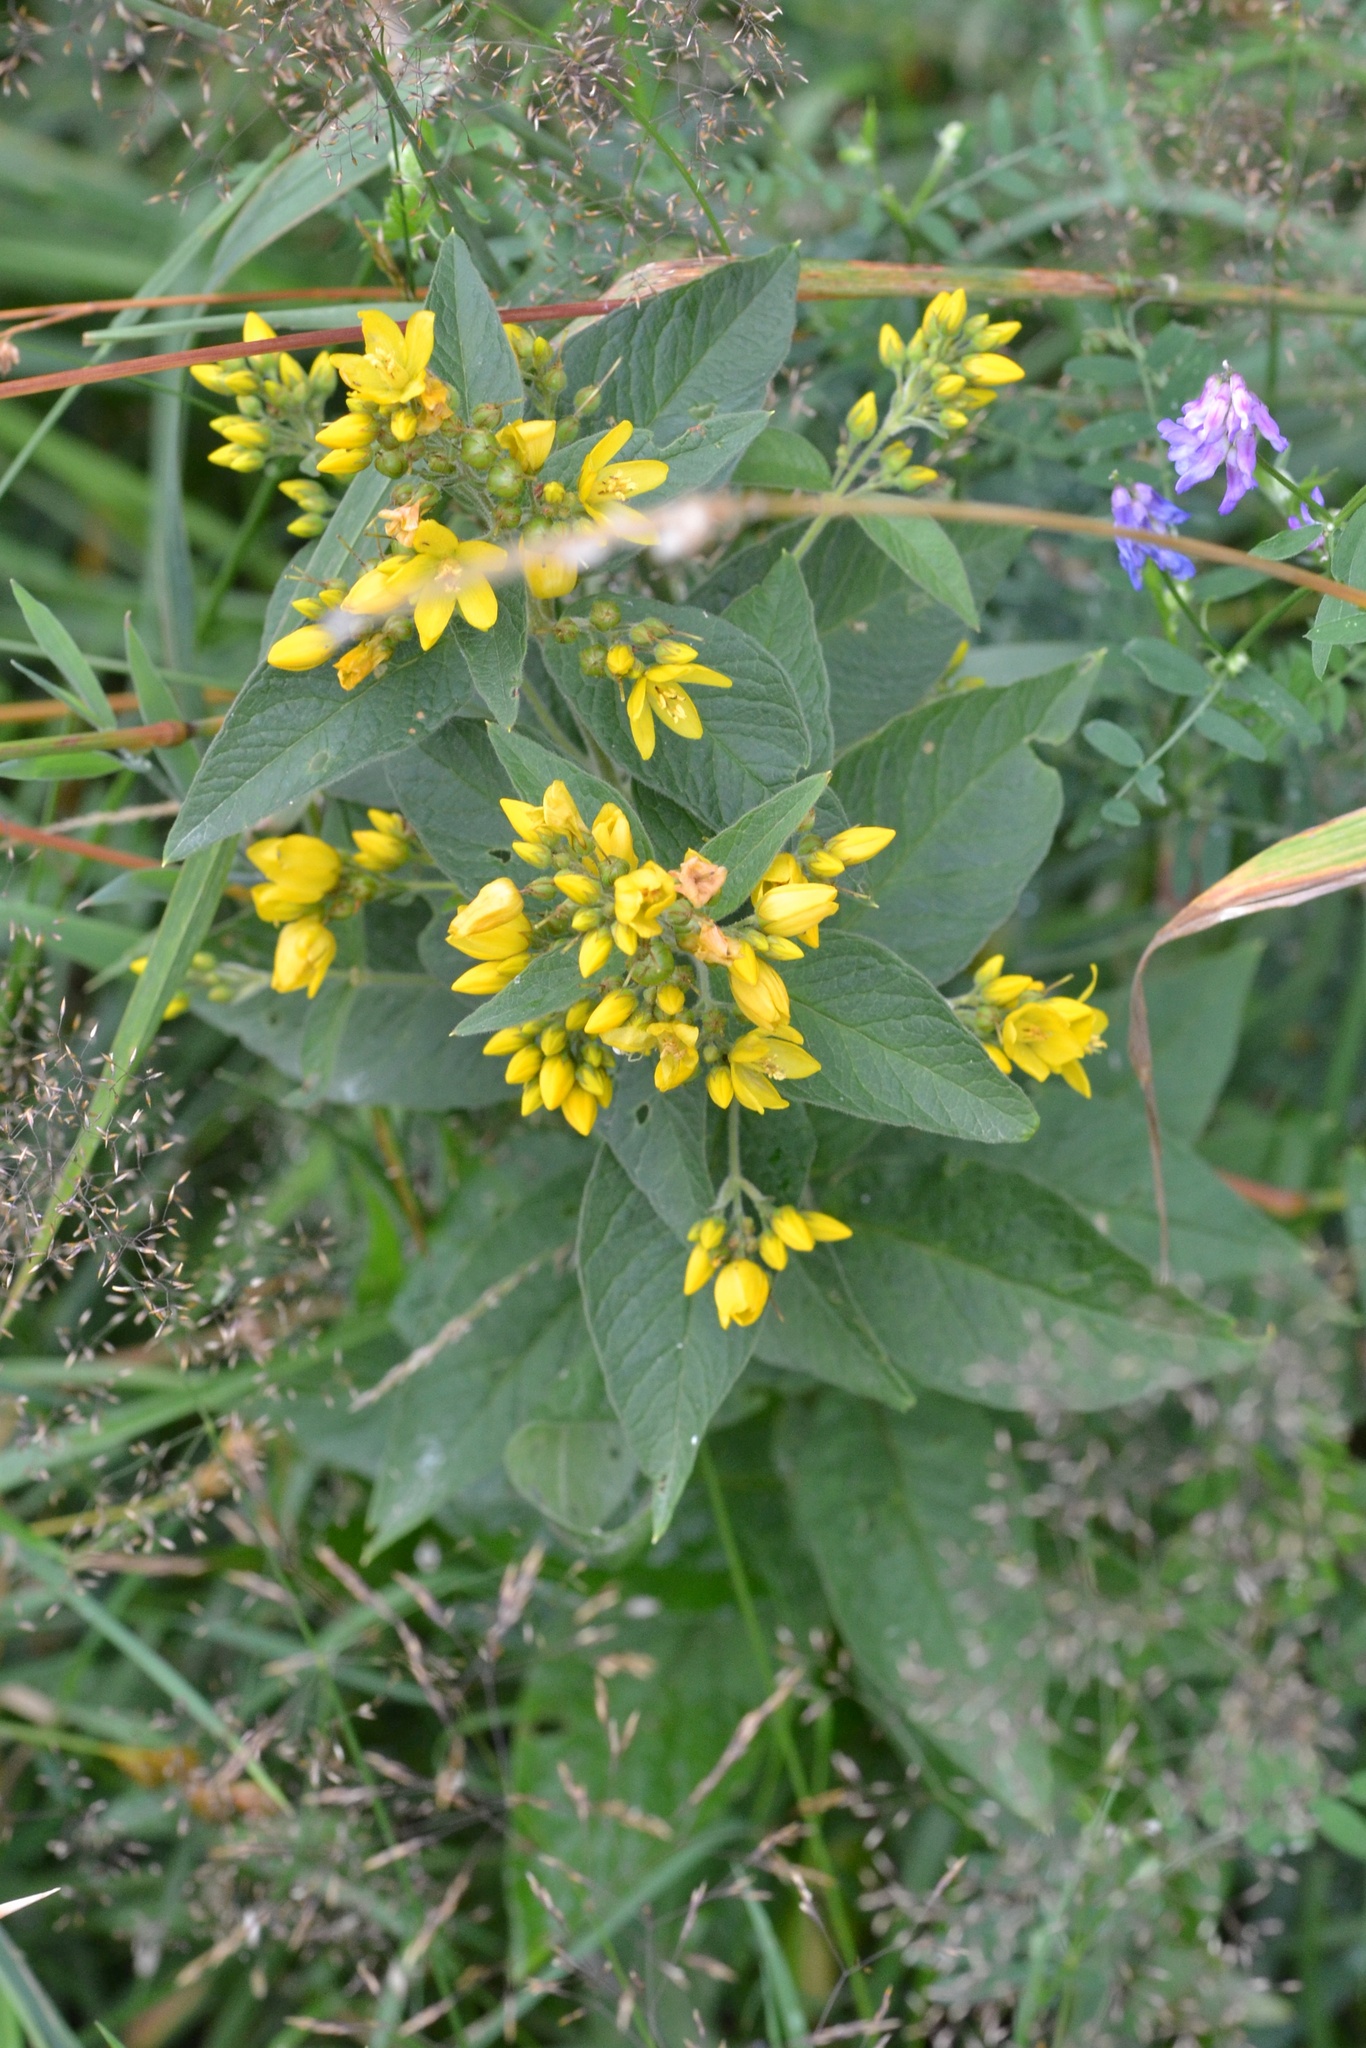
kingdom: Plantae
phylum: Tracheophyta
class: Magnoliopsida
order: Ericales
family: Primulaceae
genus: Lysimachia
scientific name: Lysimachia vulgaris
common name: Yellow loosestrife
